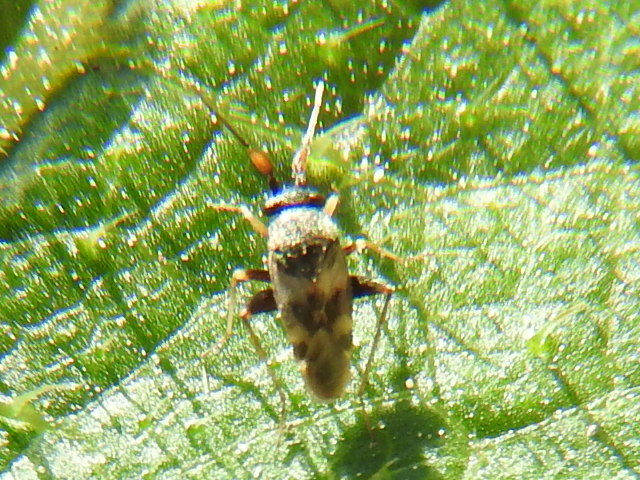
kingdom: Animalia
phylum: Arthropoda
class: Insecta
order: Hemiptera
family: Miridae
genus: Spanagonicus
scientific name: Spanagonicus albofasciatus
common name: Whitemarked fleahopper
